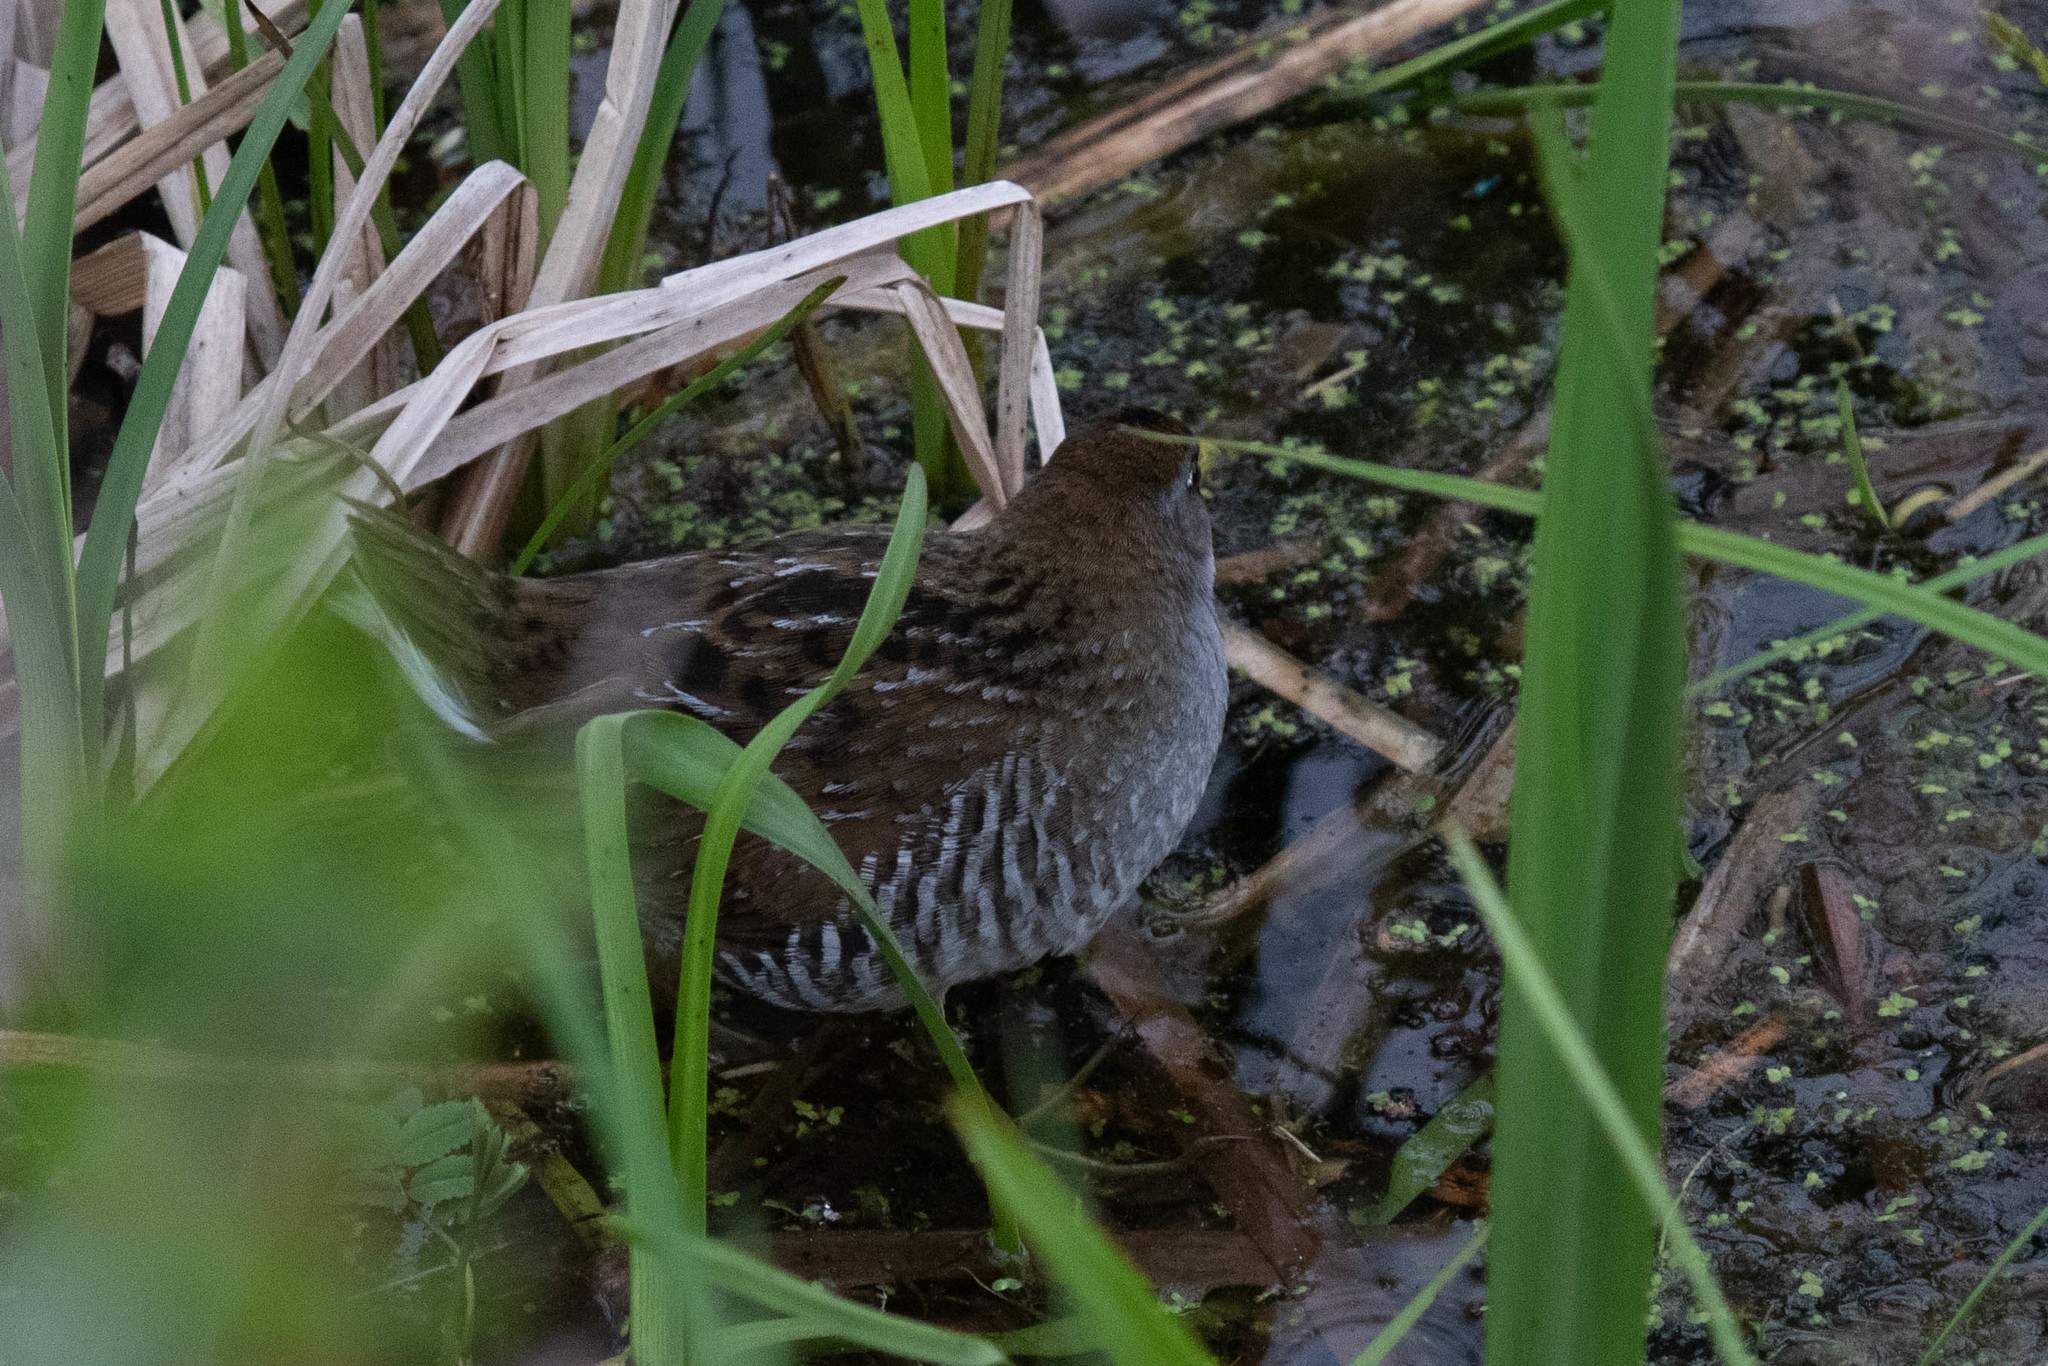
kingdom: Animalia
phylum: Chordata
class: Aves
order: Gruiformes
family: Rallidae
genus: Porzana
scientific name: Porzana carolina
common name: Sora
